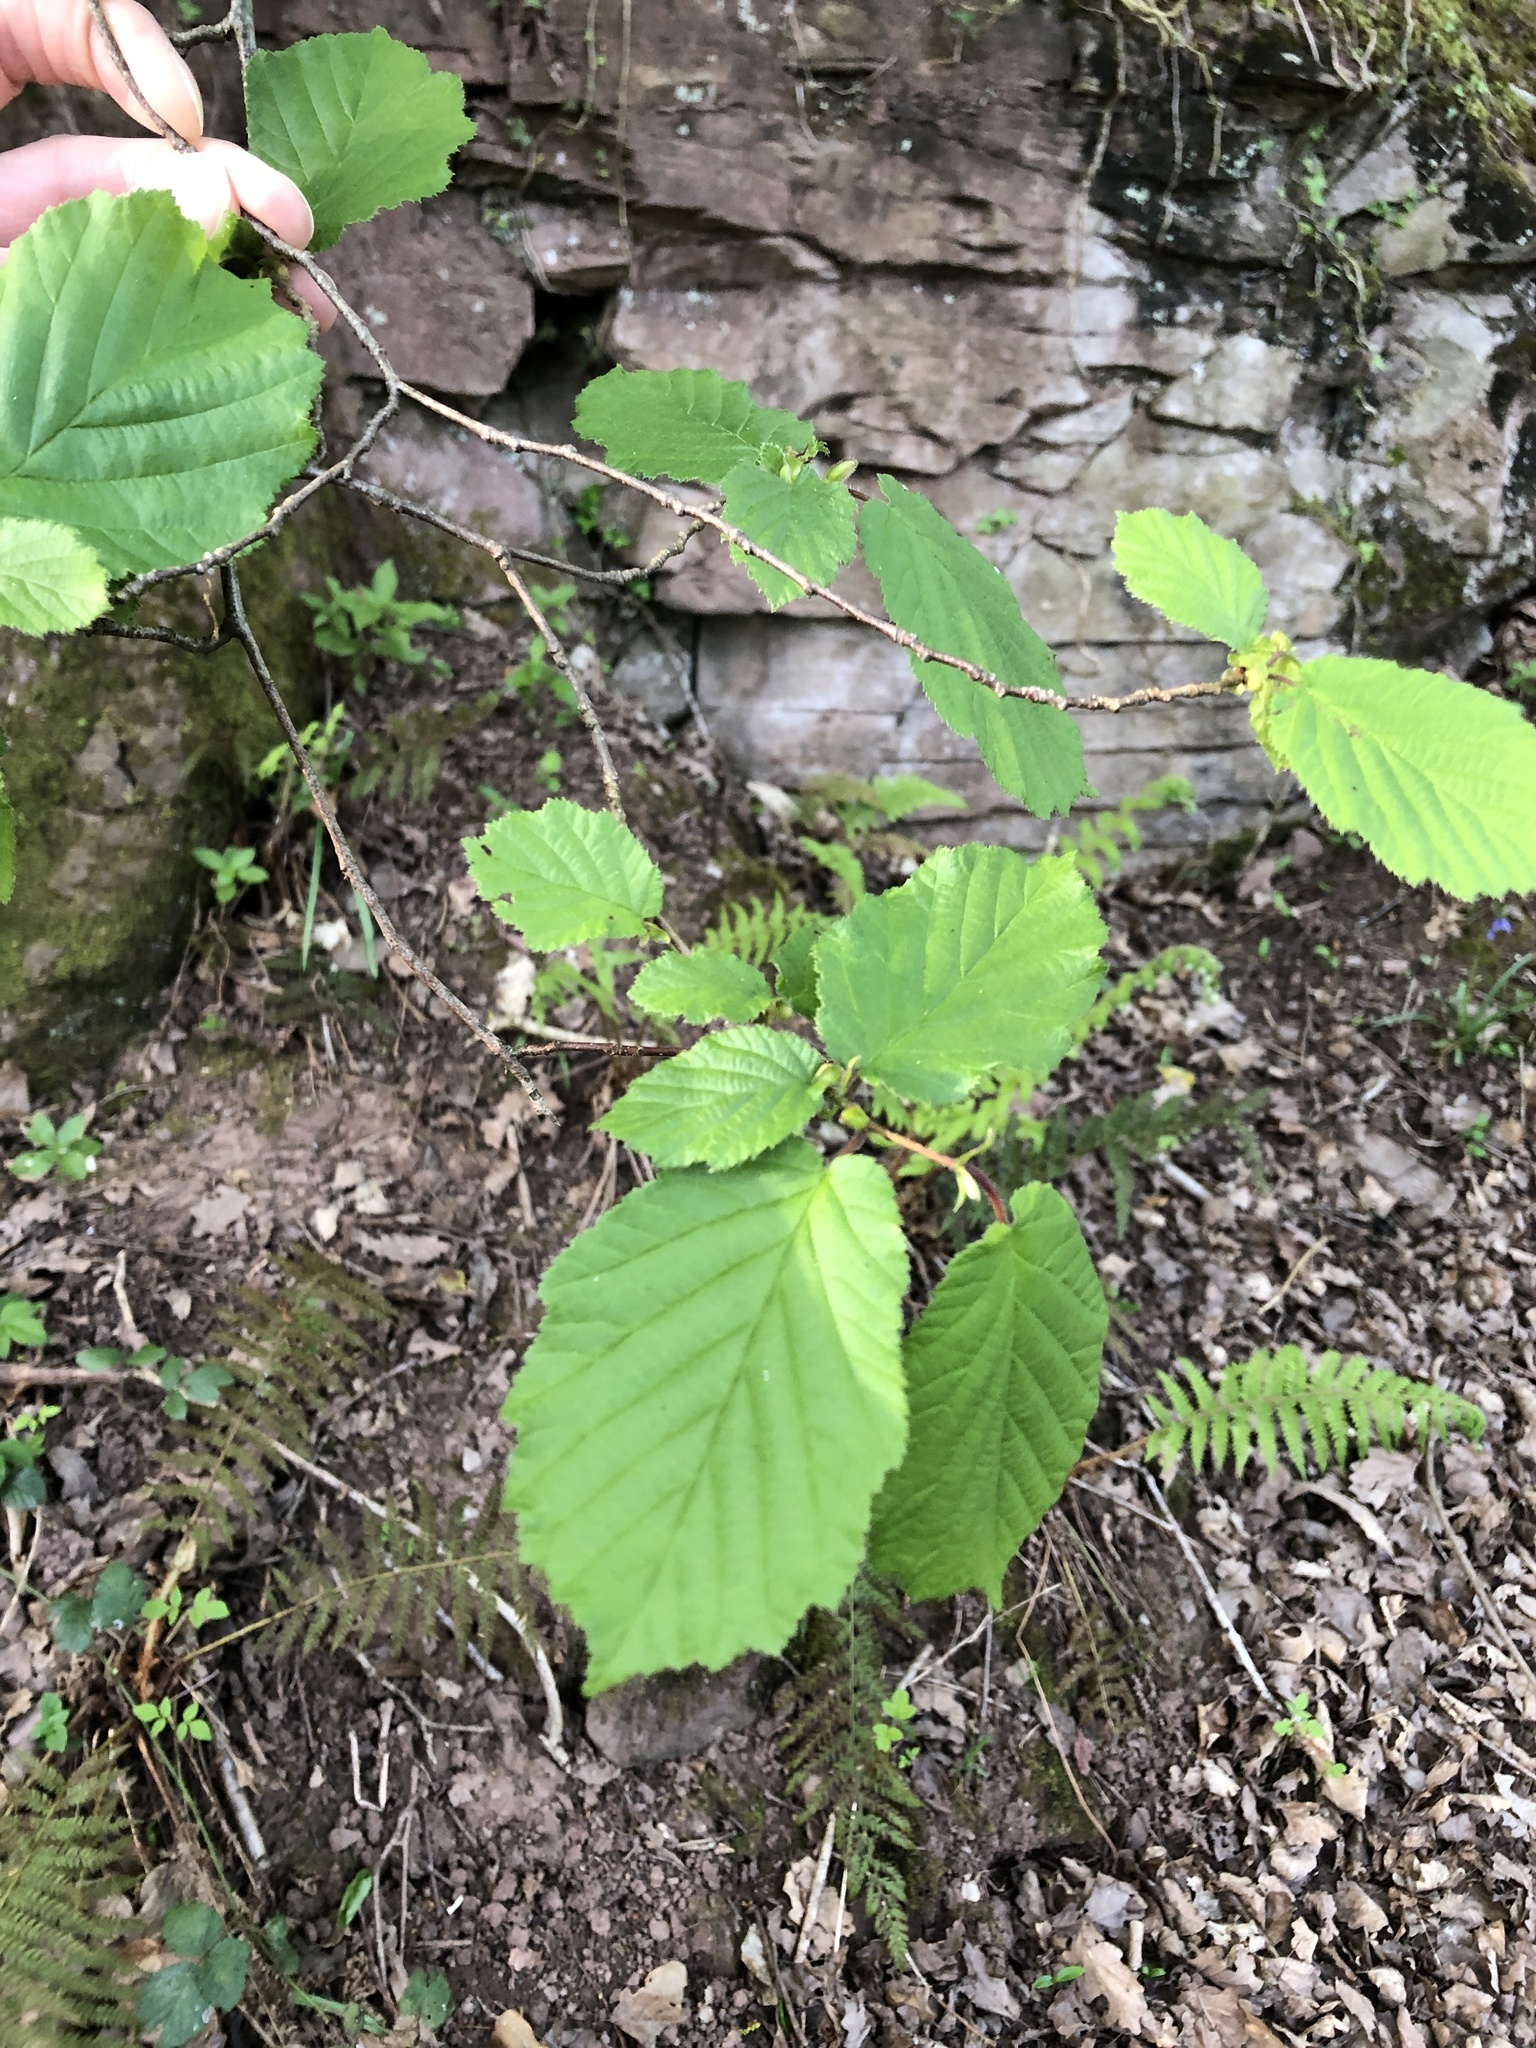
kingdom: Plantae
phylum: Tracheophyta
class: Magnoliopsida
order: Fagales
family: Betulaceae
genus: Corylus
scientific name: Corylus avellana
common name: European hazel
